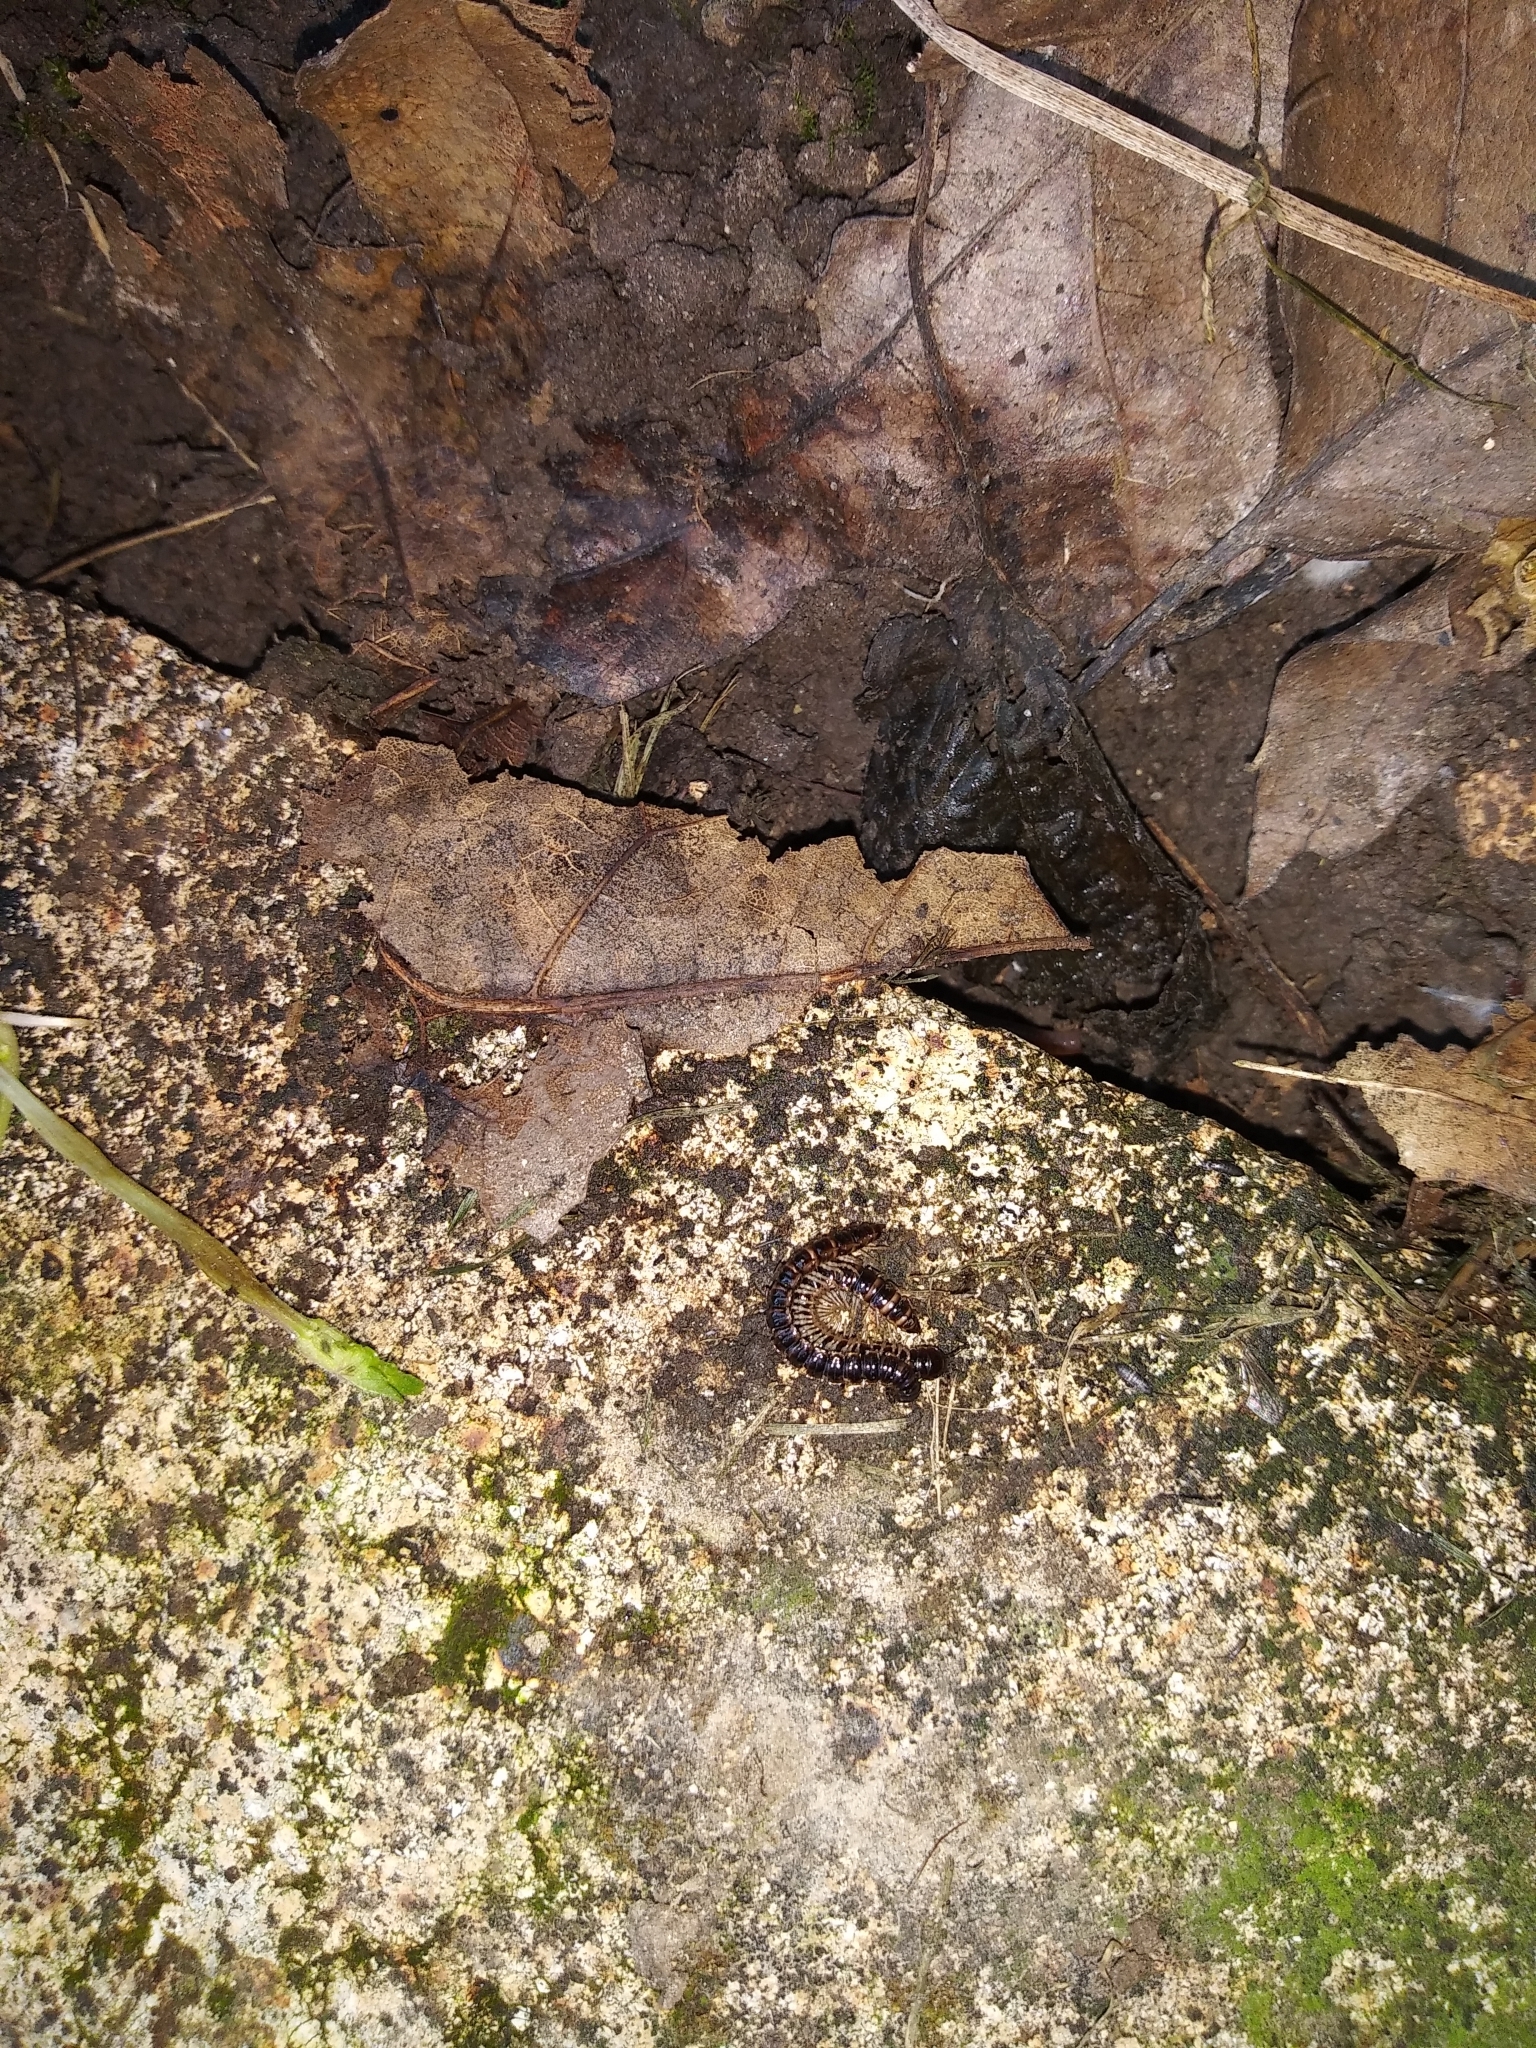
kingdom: Animalia
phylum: Arthropoda
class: Diplopoda
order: Polydesmida
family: Paradoxosomatidae
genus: Oxidus
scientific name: Oxidus gracilis
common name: Greenhouse millipede
